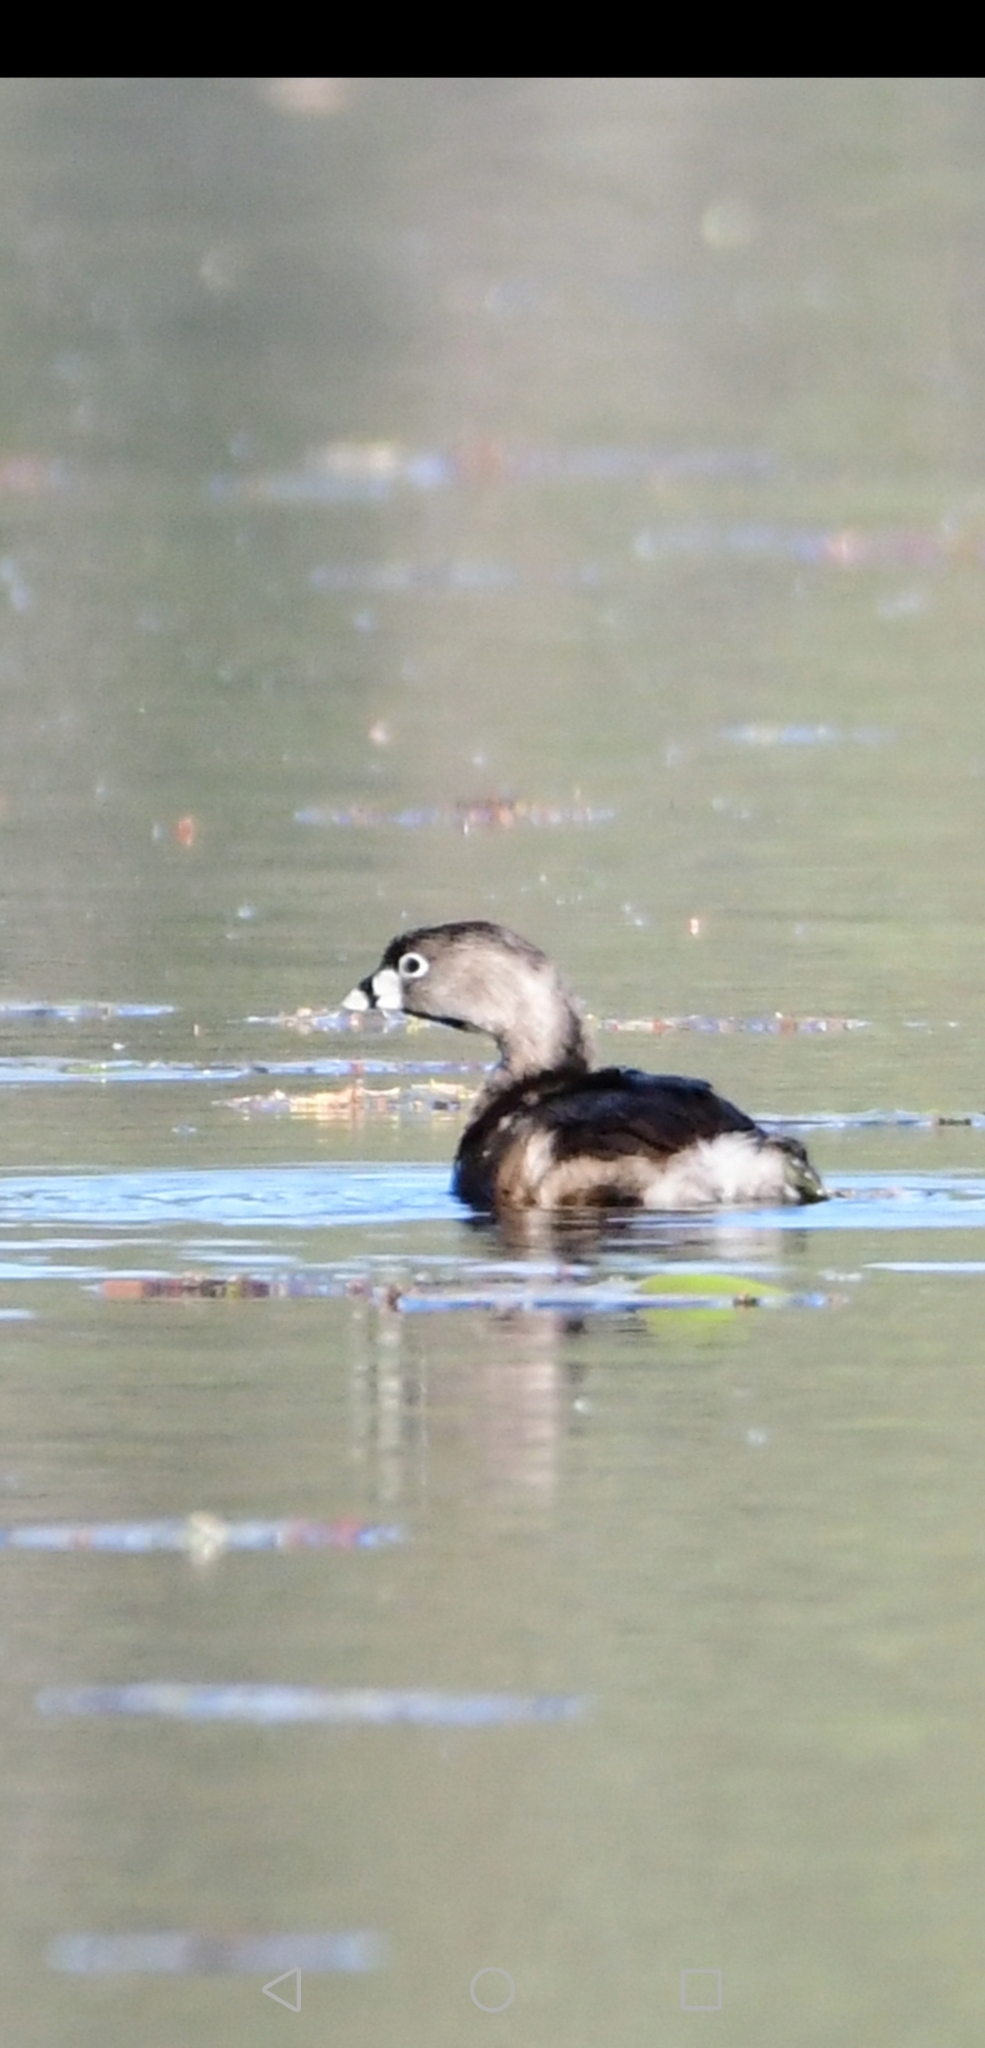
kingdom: Animalia
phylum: Chordata
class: Aves
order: Podicipediformes
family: Podicipedidae
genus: Podilymbus
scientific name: Podilymbus podiceps
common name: Pied-billed grebe
